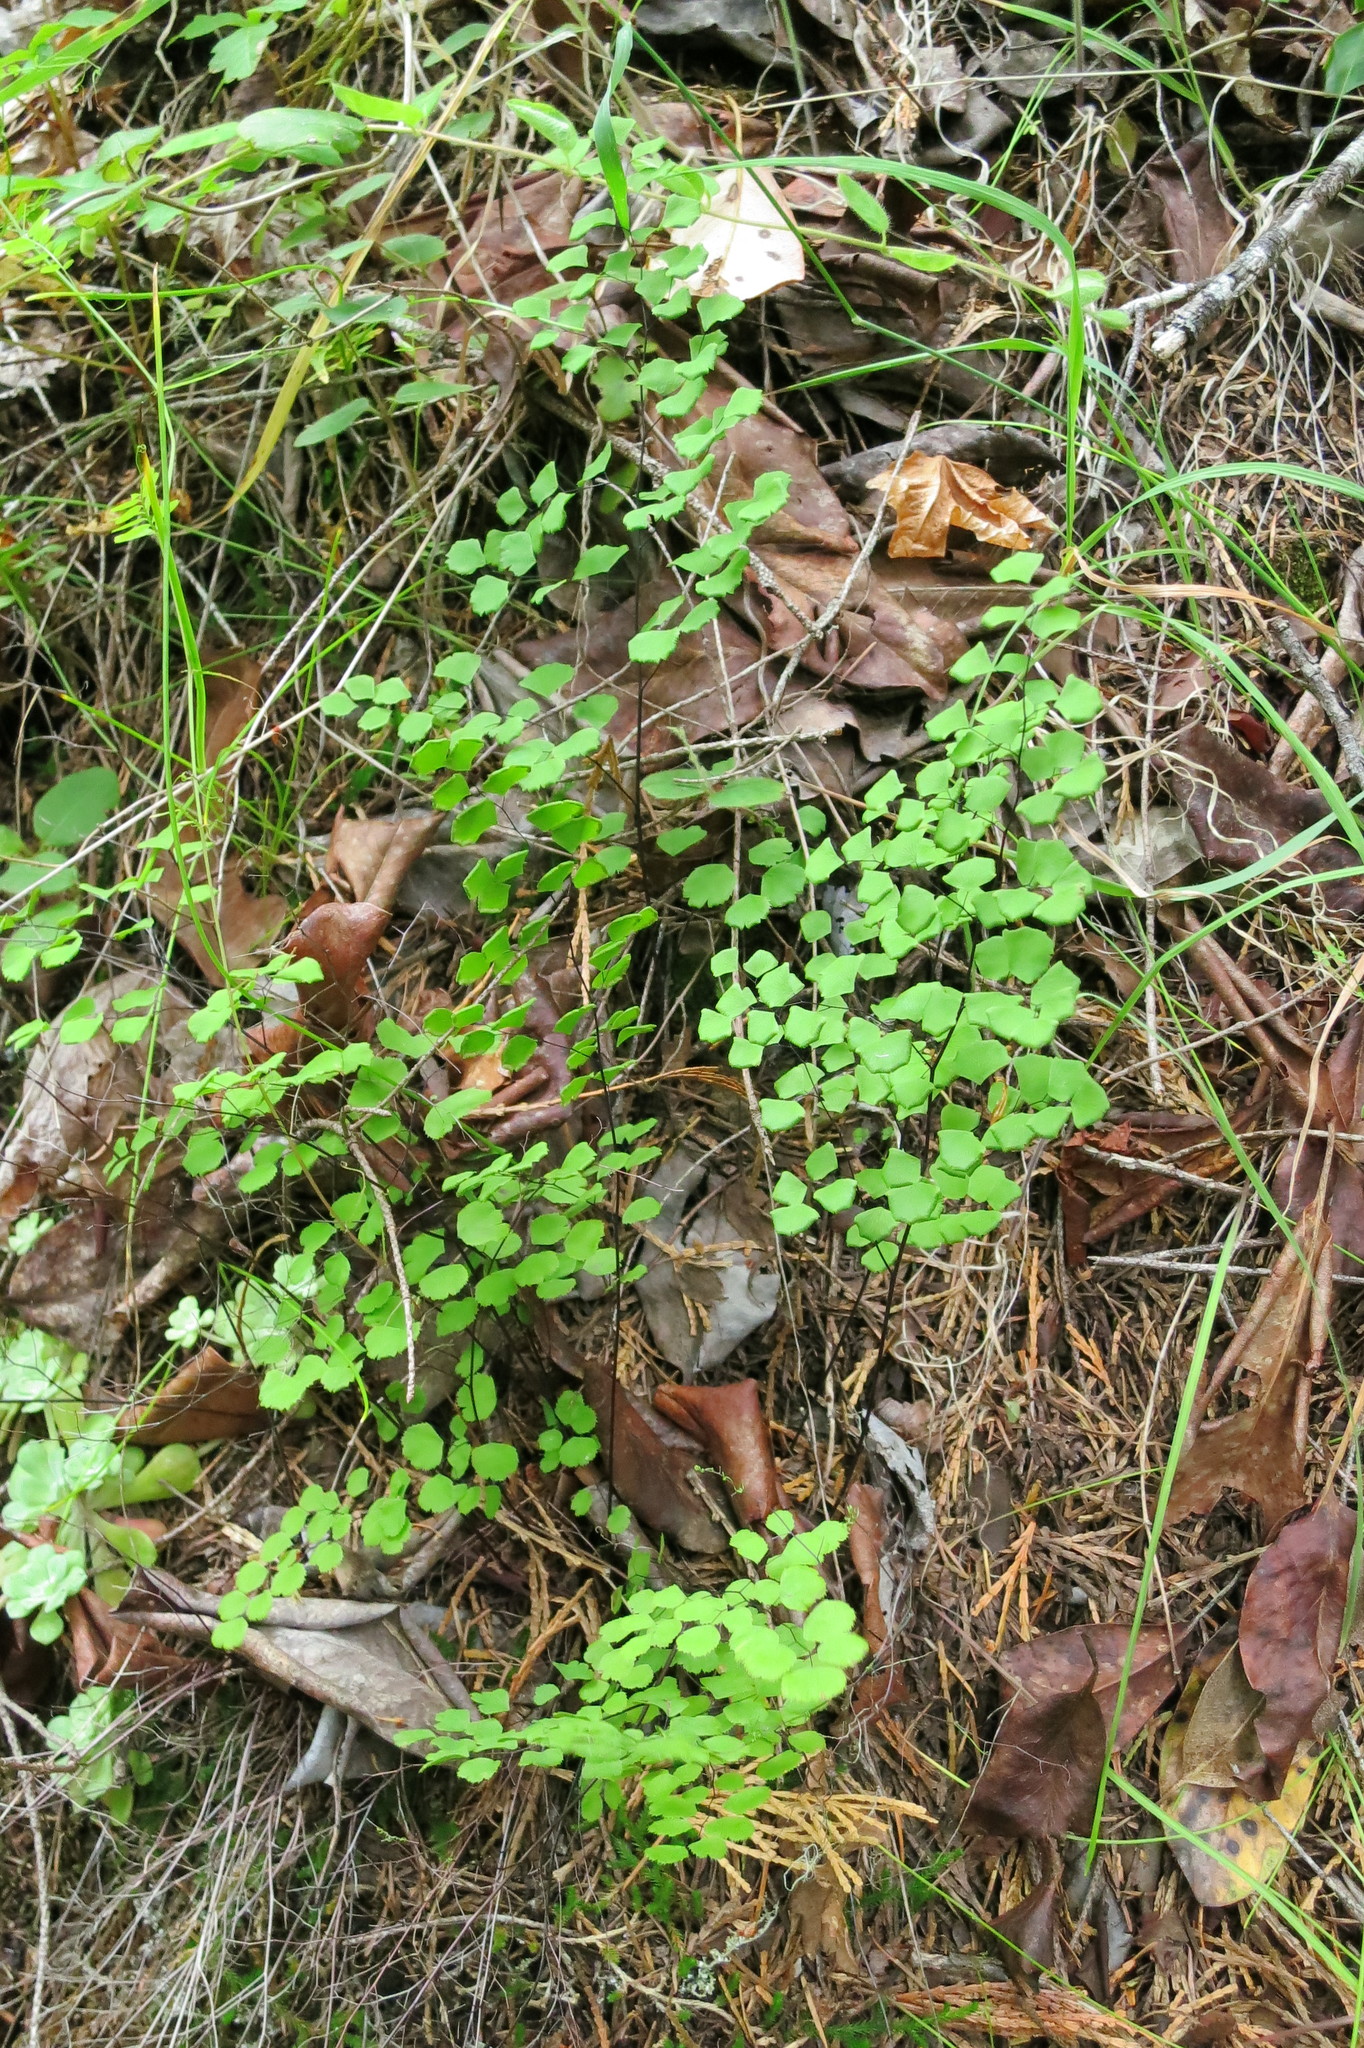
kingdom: Plantae
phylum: Tracheophyta
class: Polypodiopsida
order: Polypodiales
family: Pteridaceae
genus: Adiantum
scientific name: Adiantum jordanii
